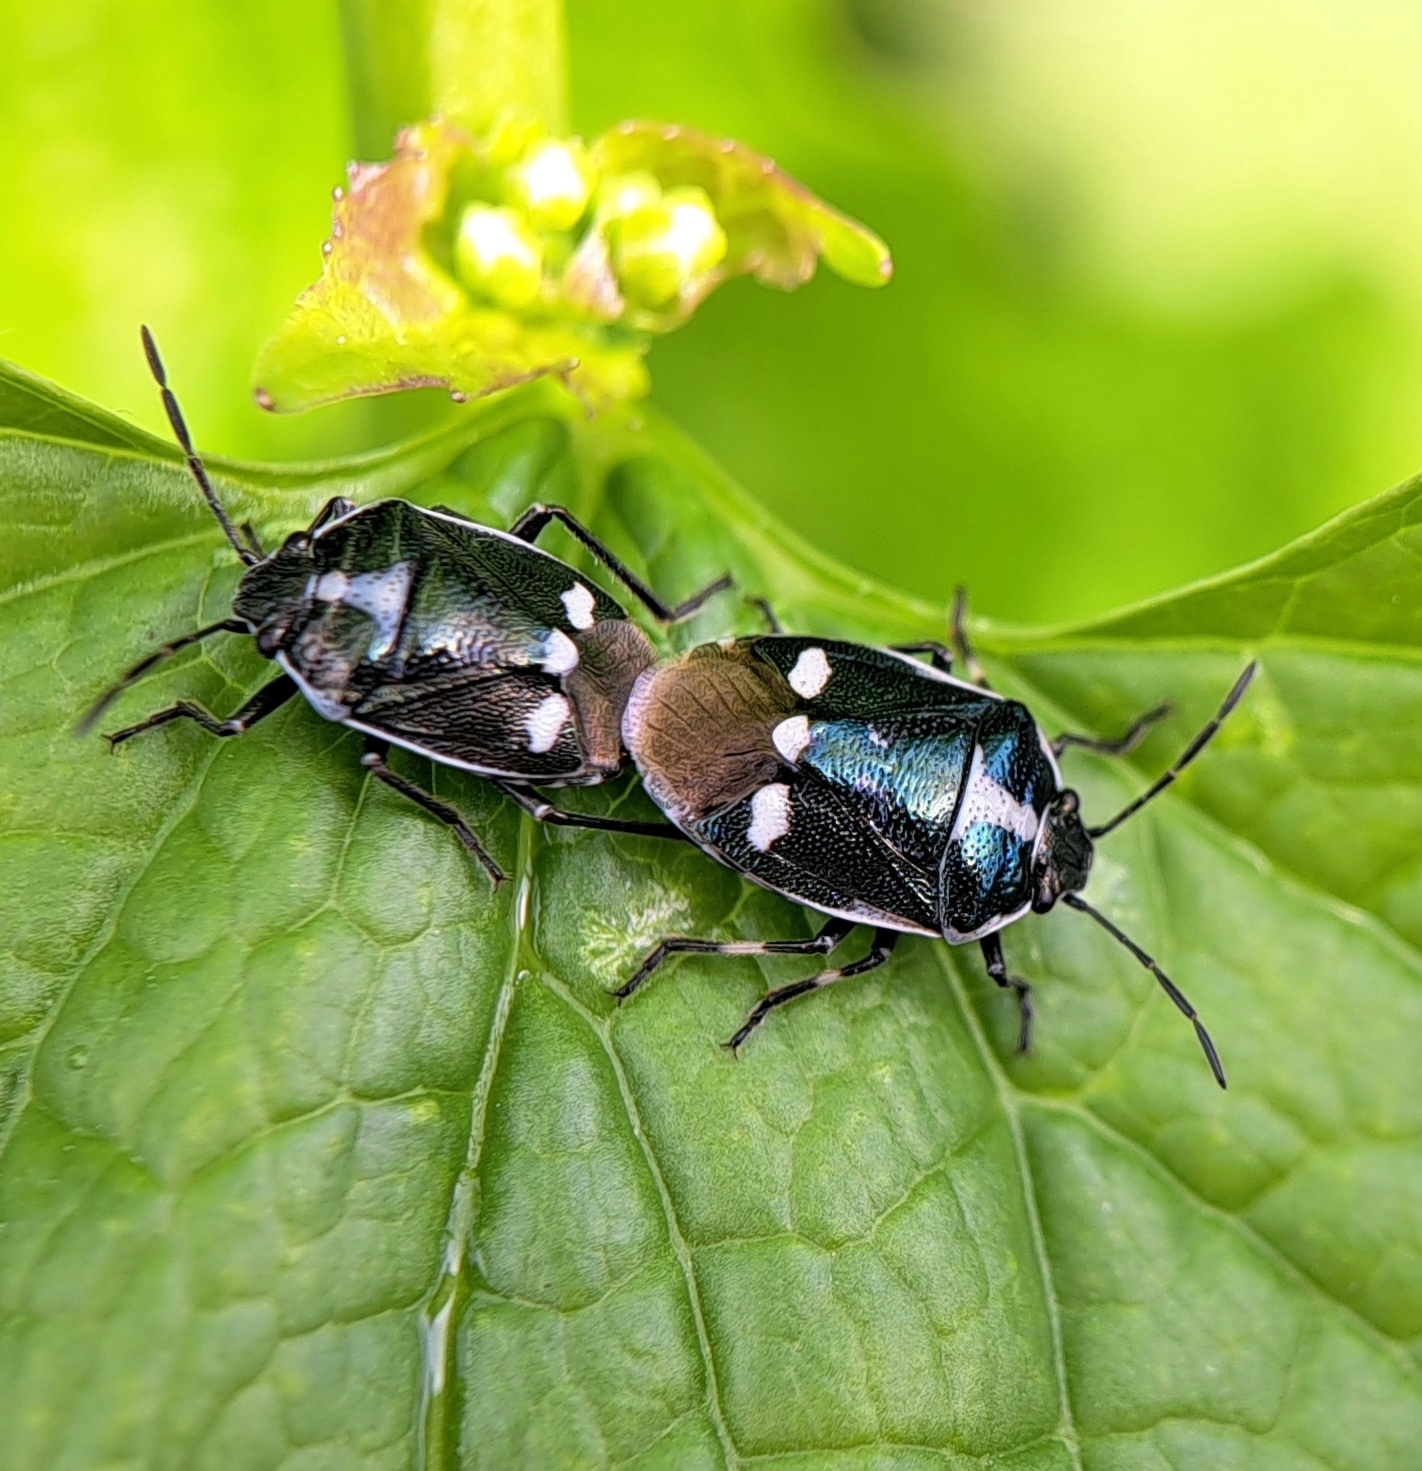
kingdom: Animalia
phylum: Arthropoda
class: Insecta
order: Hemiptera
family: Pentatomidae
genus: Eurydema
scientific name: Eurydema oleracea
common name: Cabbage bug
